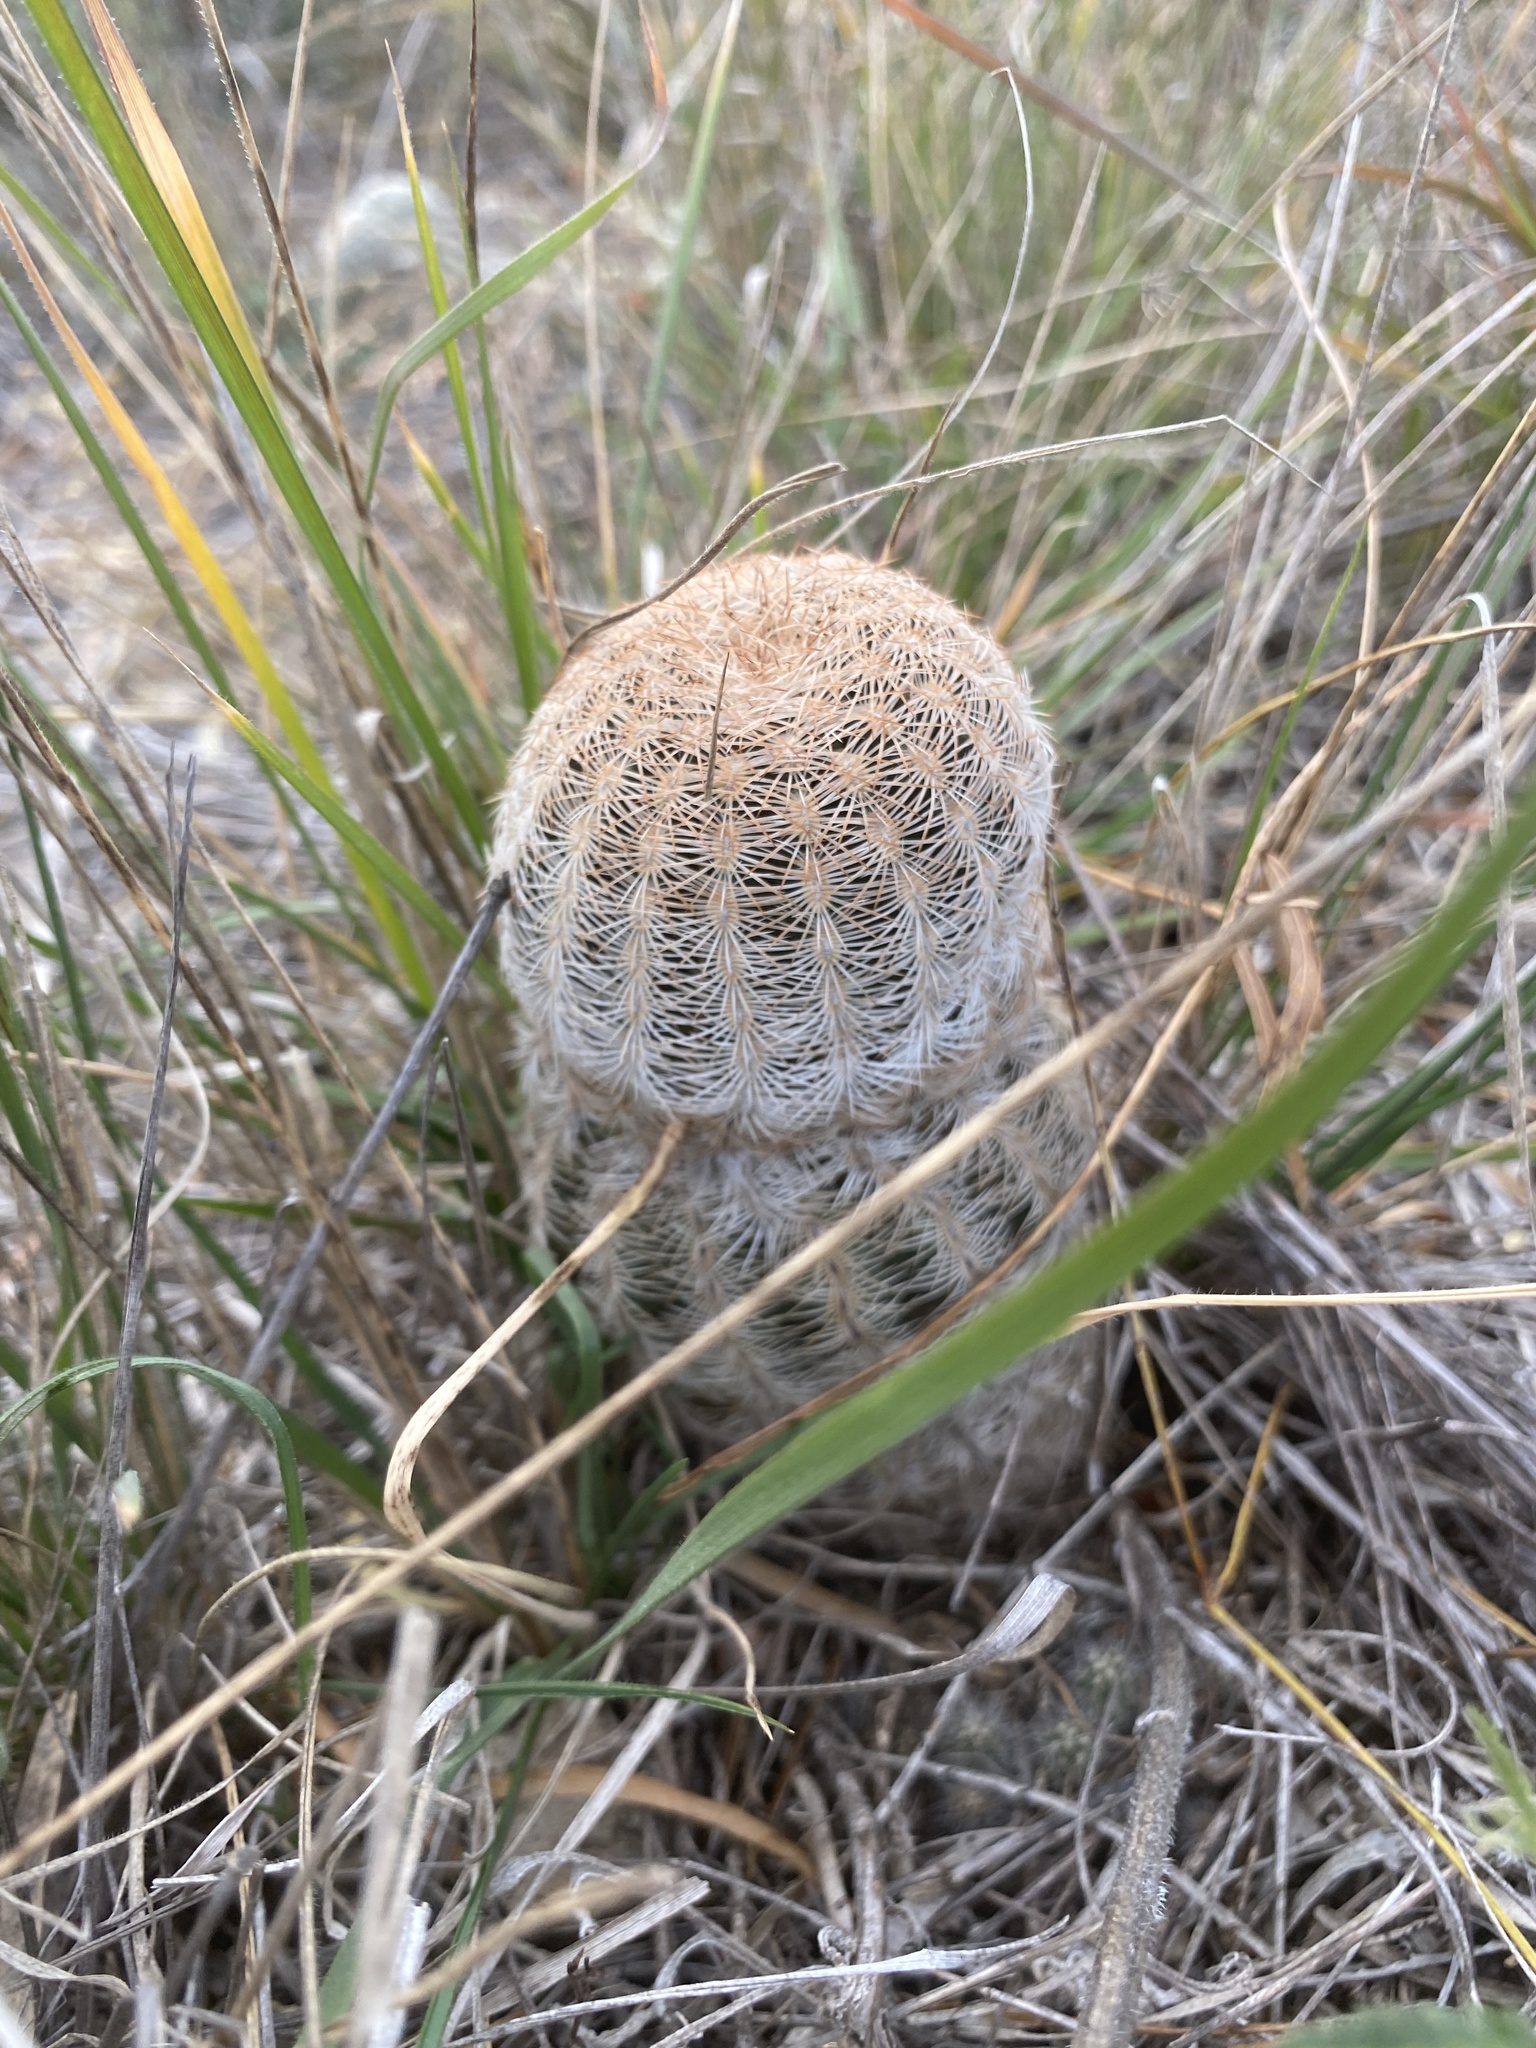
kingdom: Plantae
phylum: Tracheophyta
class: Magnoliopsida
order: Caryophyllales
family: Cactaceae
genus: Echinocereus
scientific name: Echinocereus reichenbachii
